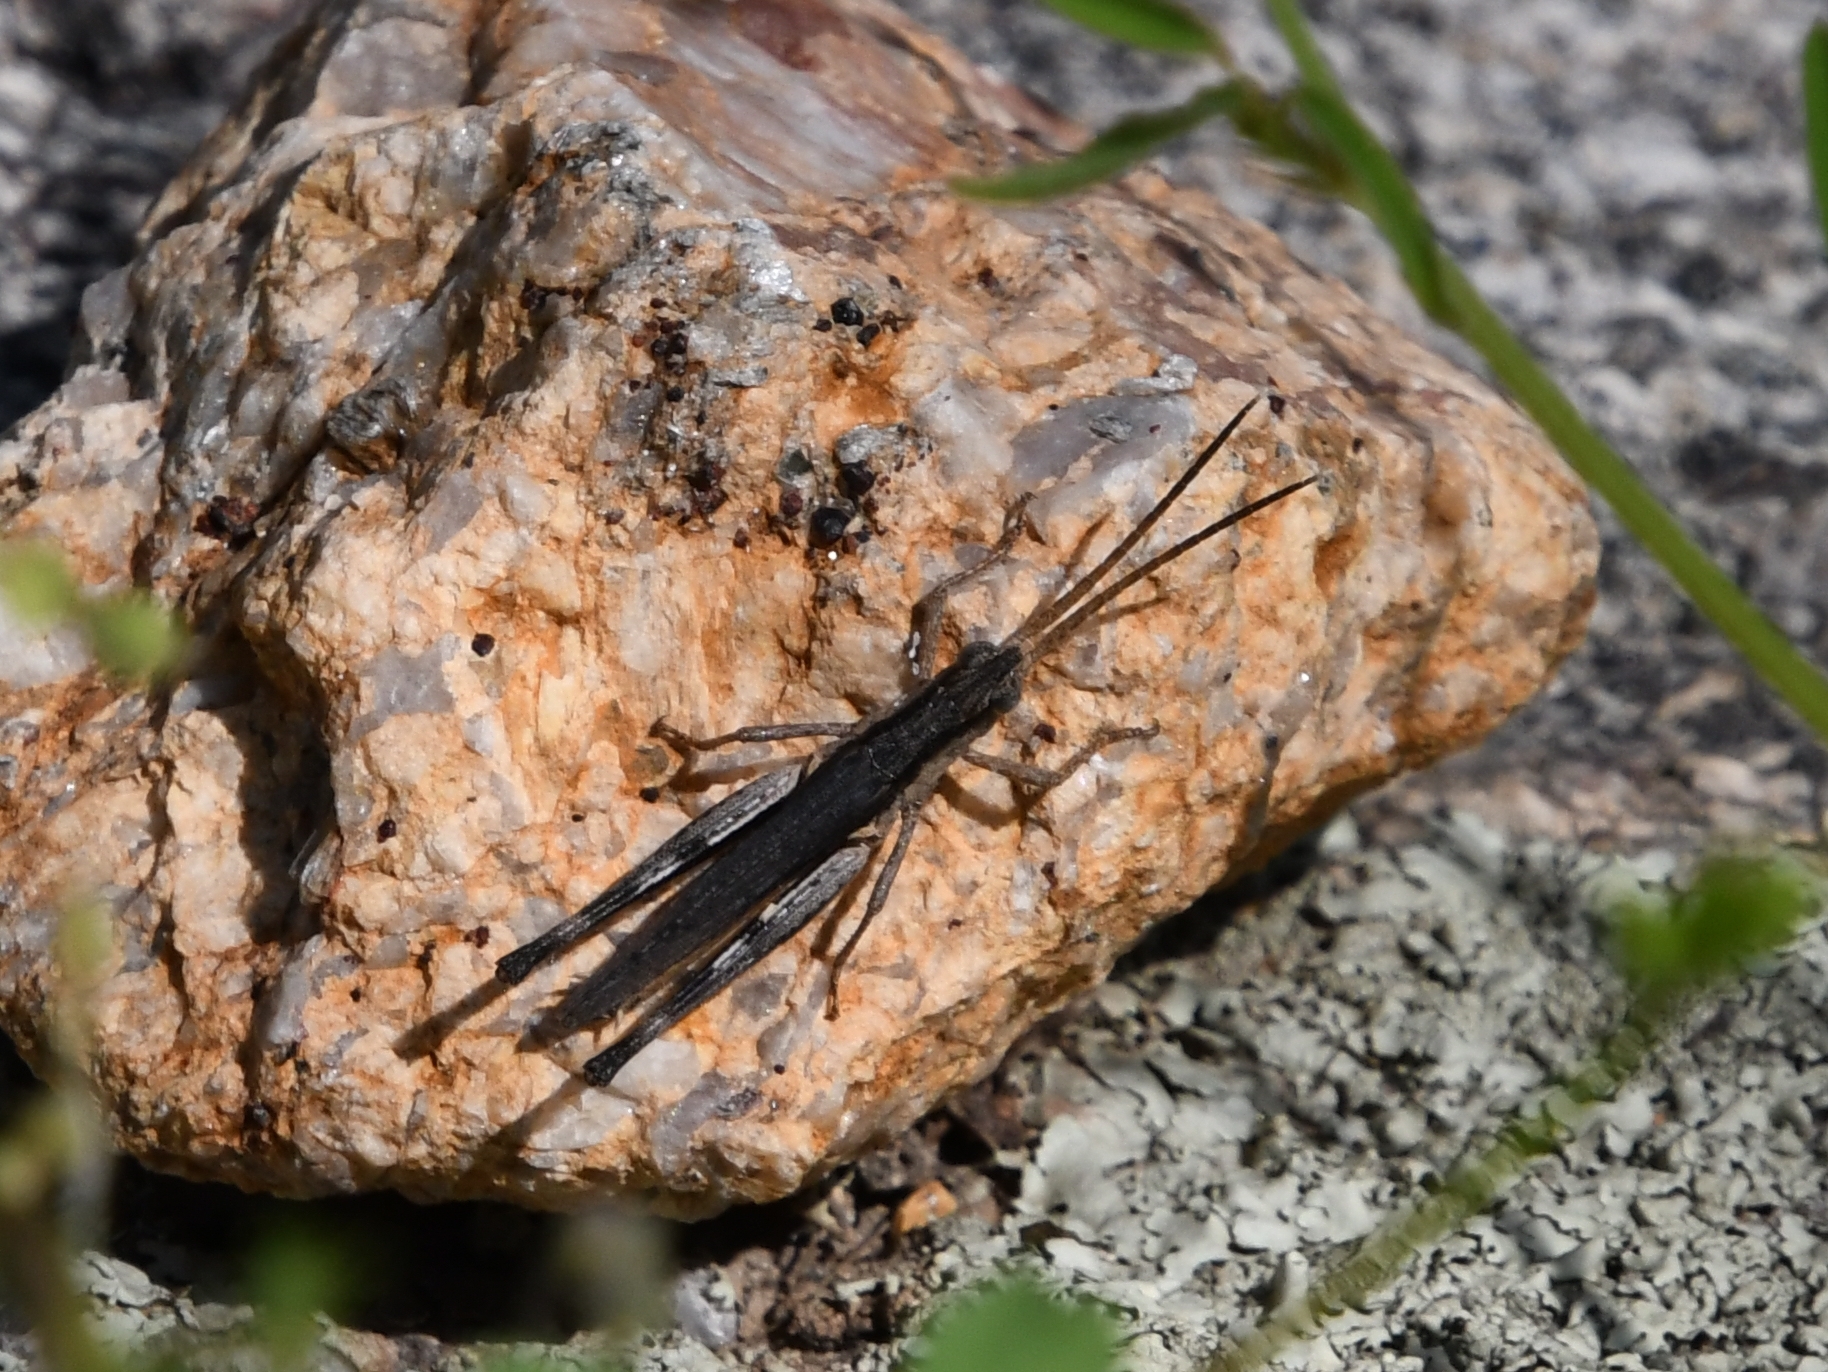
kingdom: Animalia
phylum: Arthropoda
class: Insecta
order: Orthoptera
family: Acrididae
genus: Acantherus
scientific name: Acantherus piperatus
